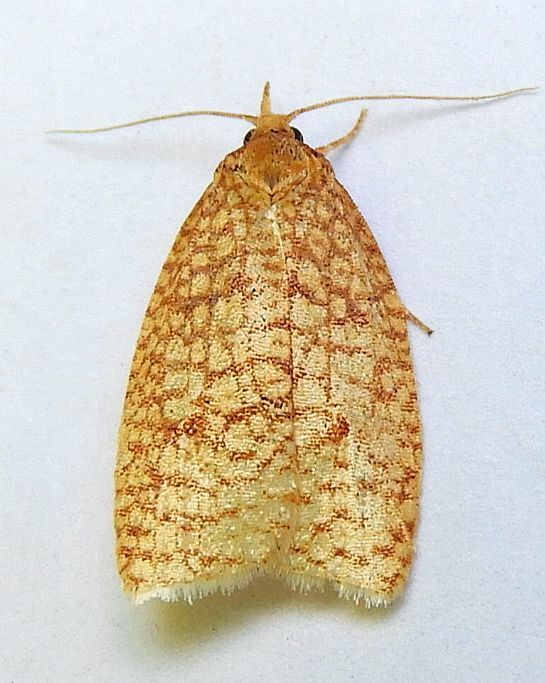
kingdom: Animalia
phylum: Arthropoda
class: Insecta
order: Lepidoptera
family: Tortricidae
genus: Sparganothis
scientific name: Sparganothis caryae
